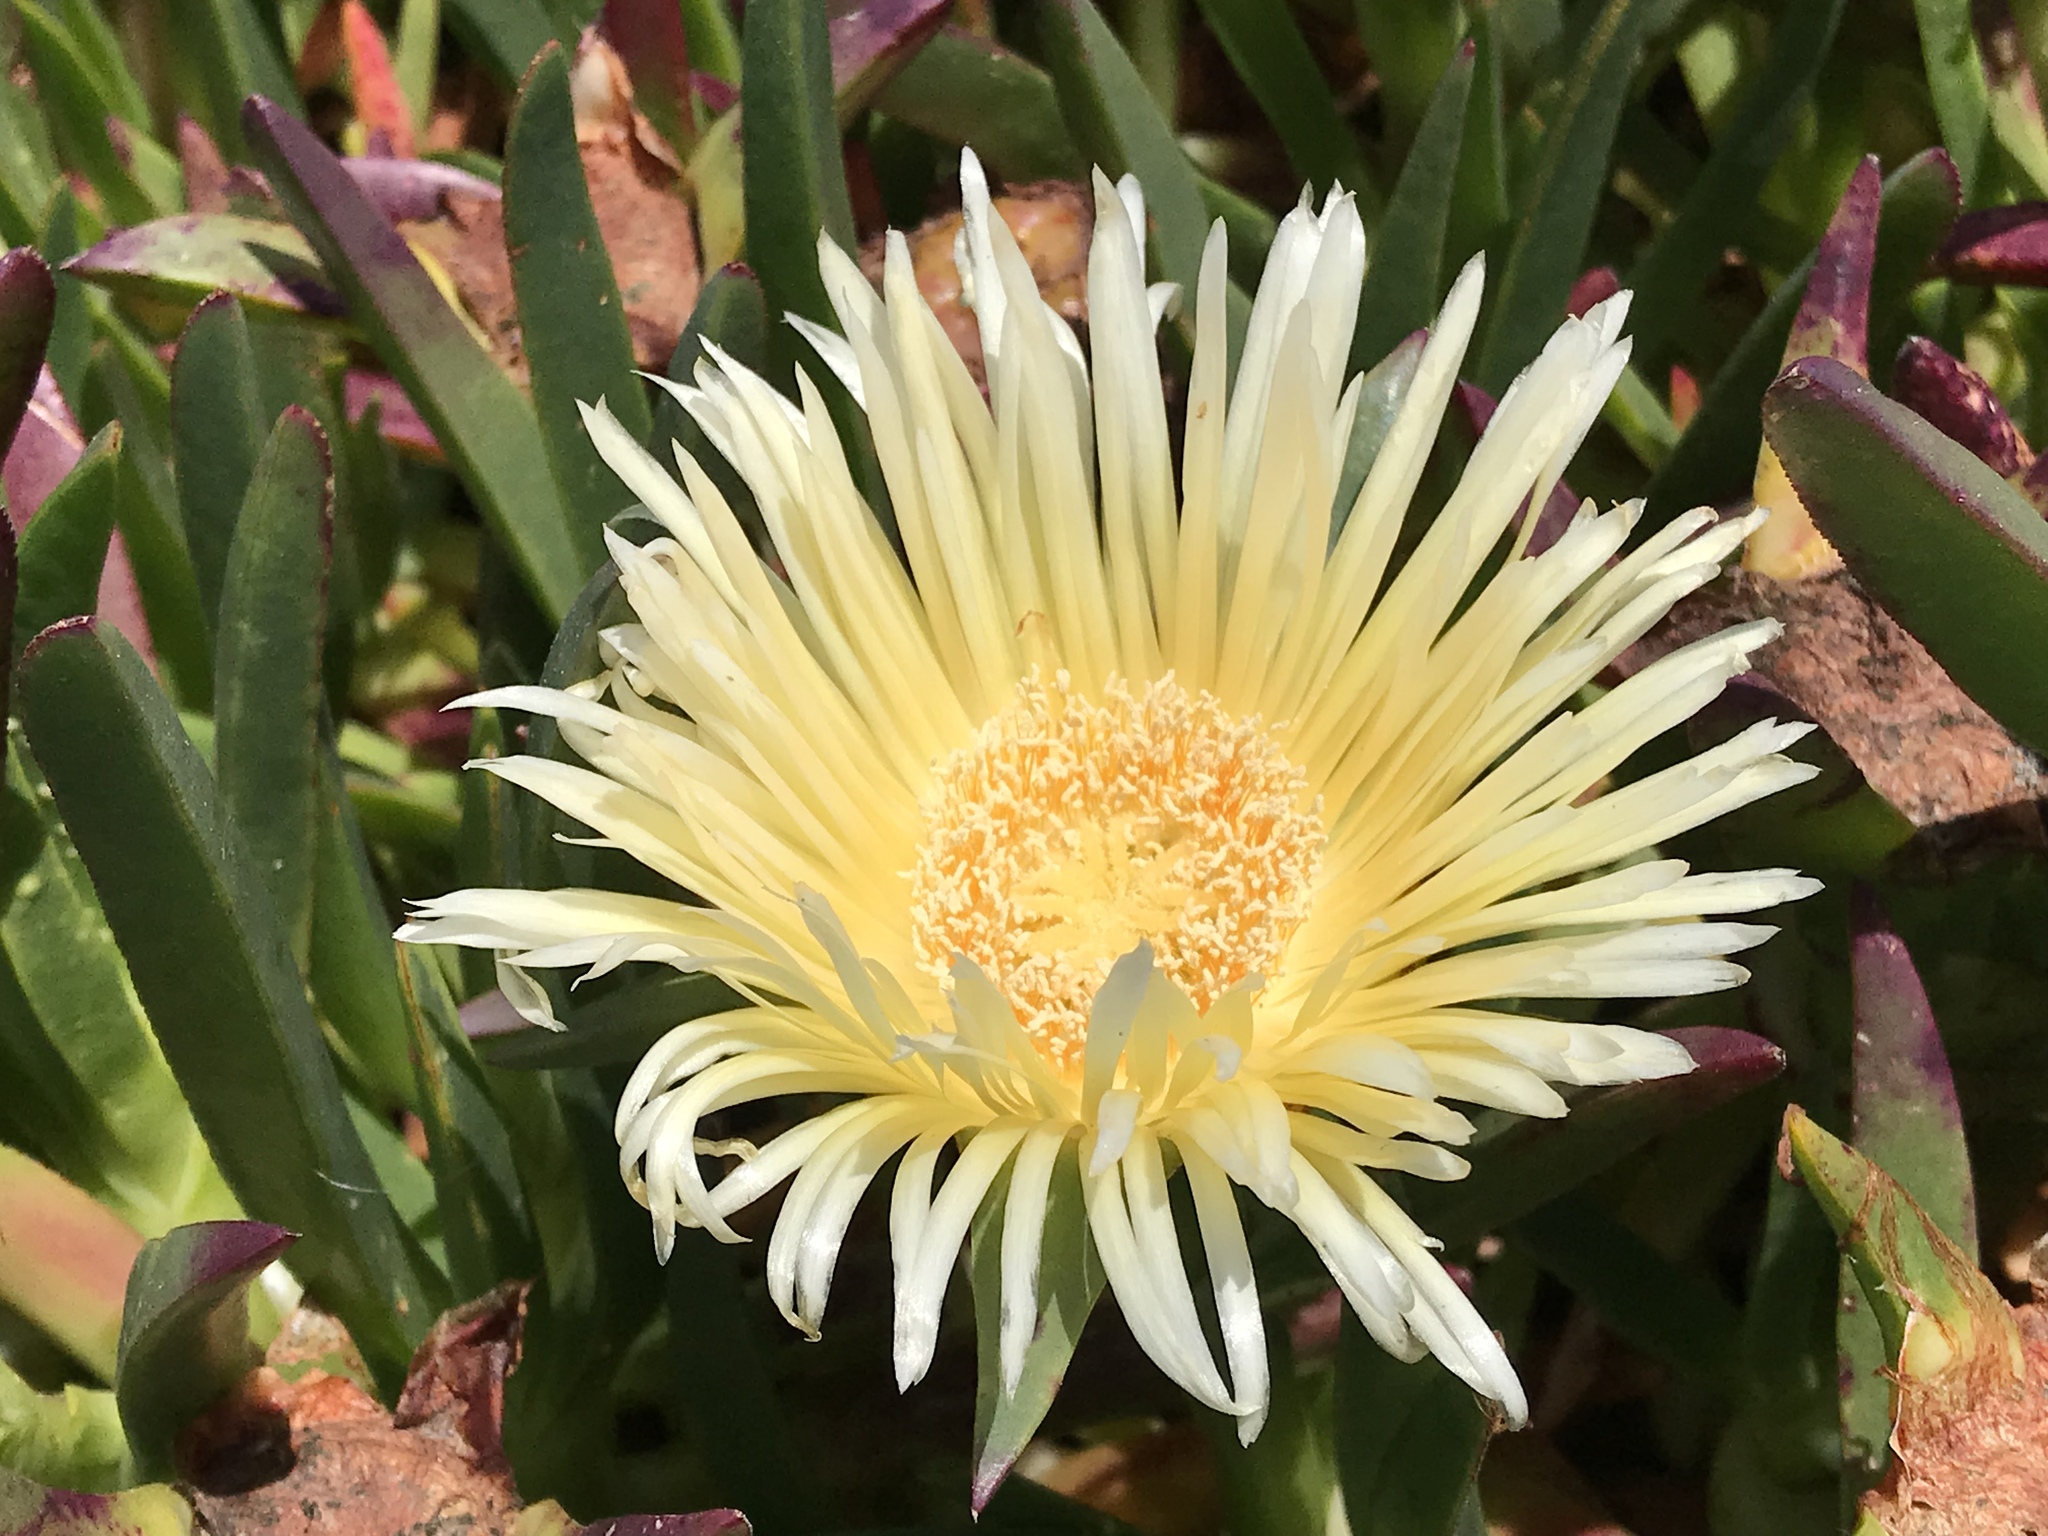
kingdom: Plantae
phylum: Tracheophyta
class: Magnoliopsida
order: Caryophyllales
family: Aizoaceae
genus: Carpobrotus
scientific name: Carpobrotus edulis
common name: Hottentot-fig
